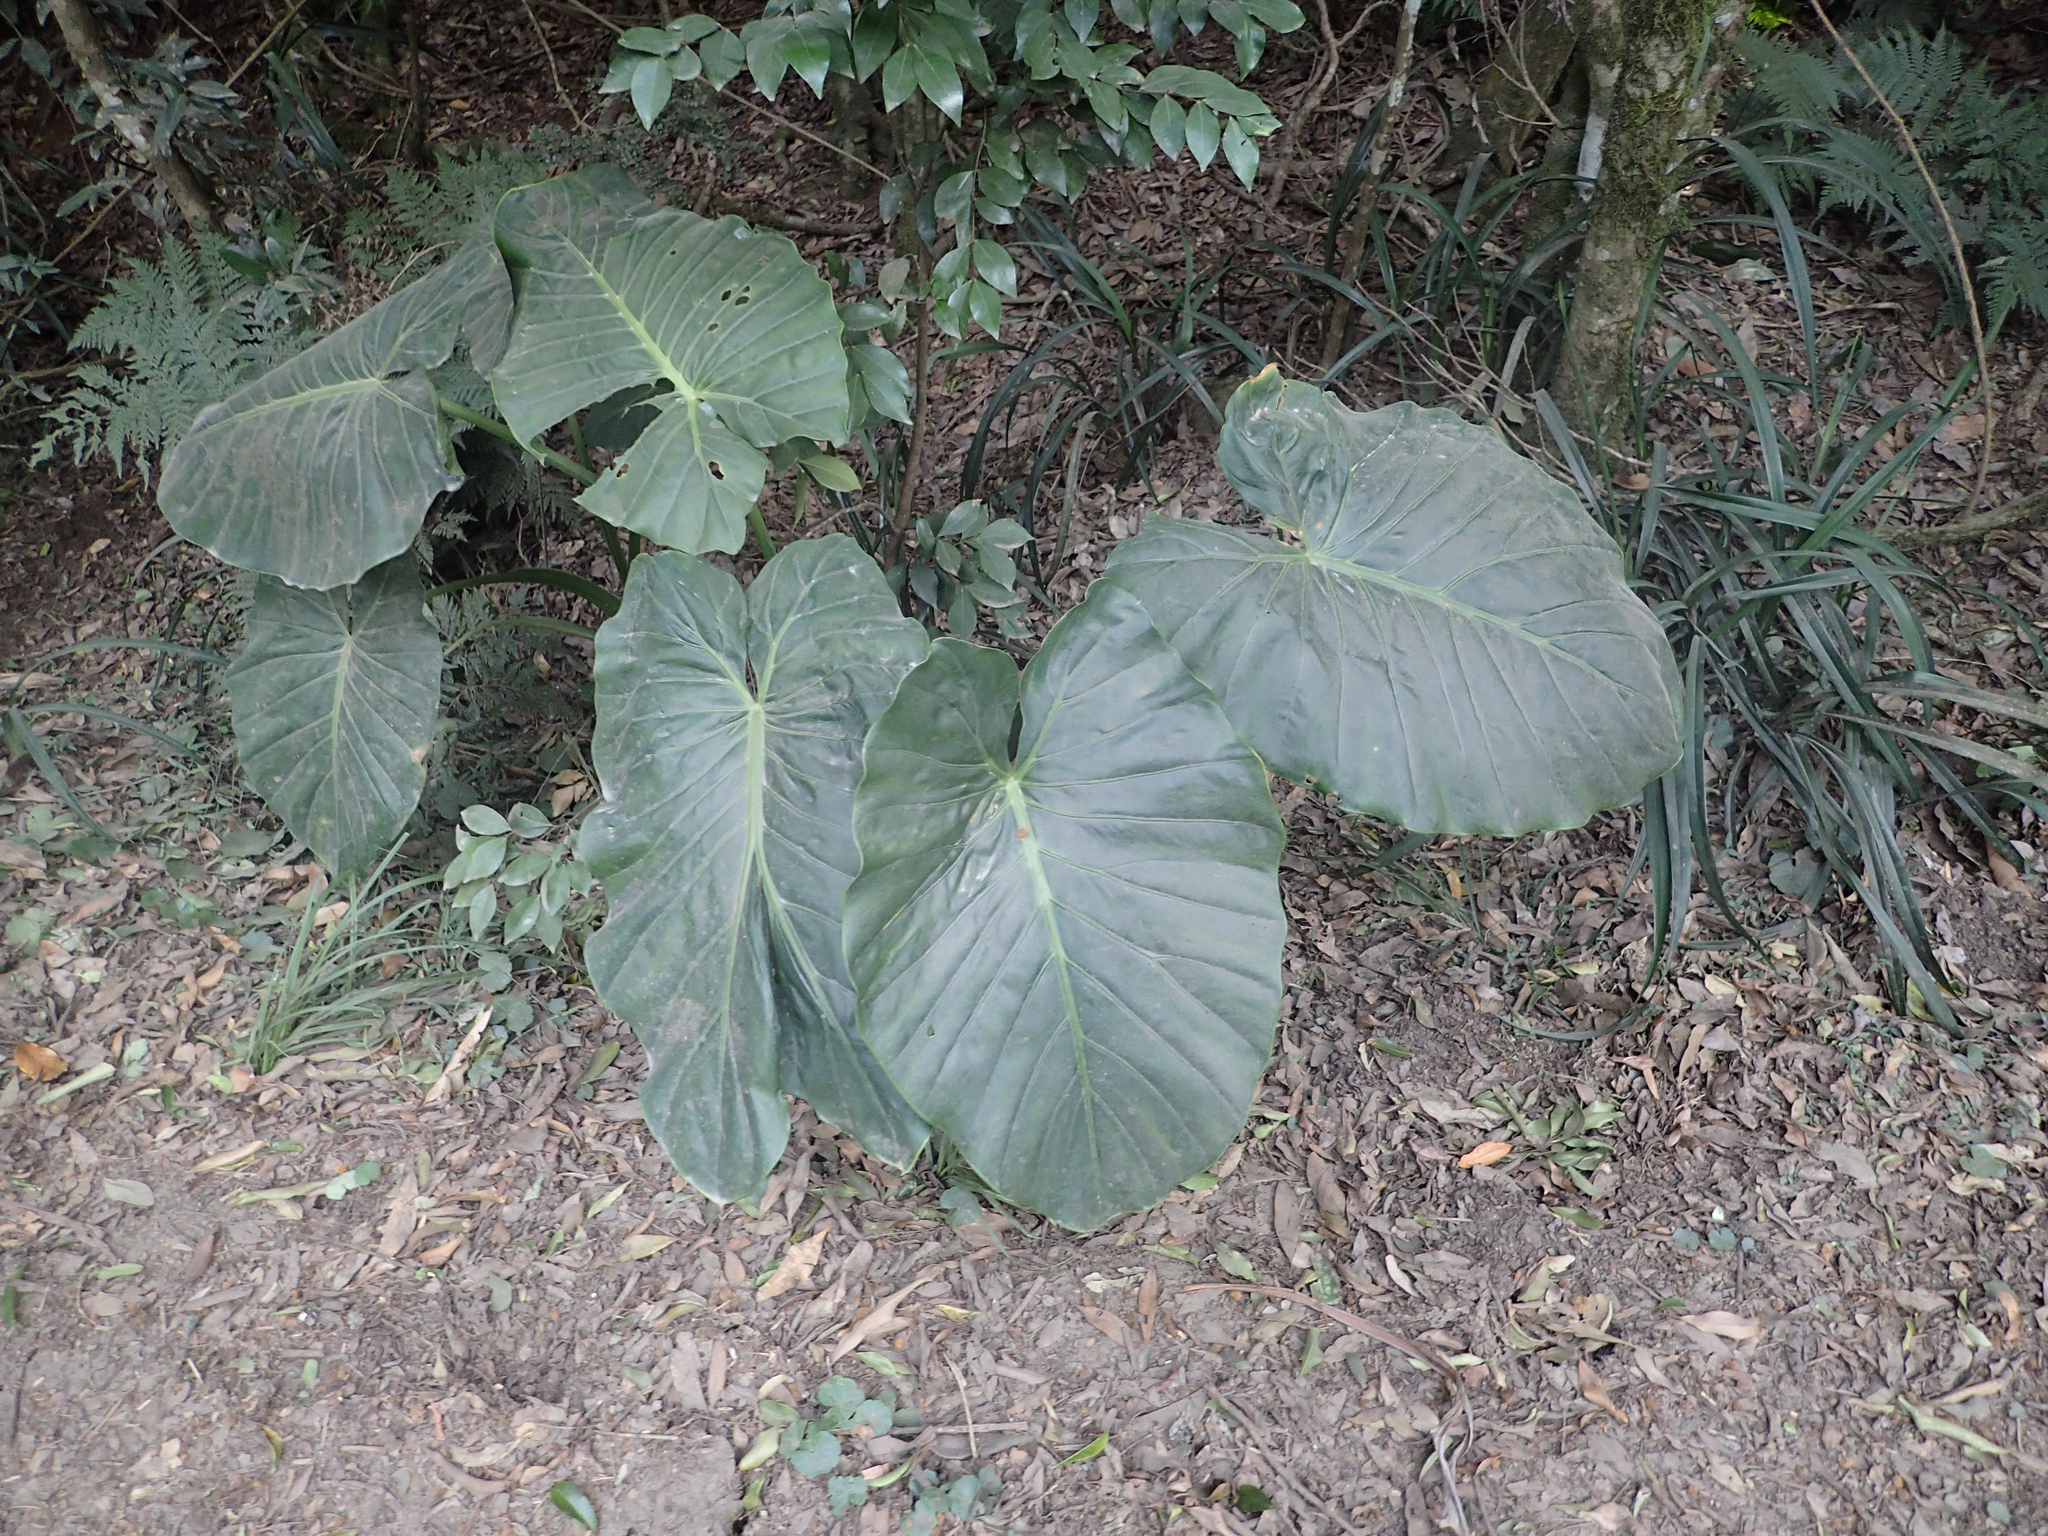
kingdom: Plantae
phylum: Tracheophyta
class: Liliopsida
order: Alismatales
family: Araceae
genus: Alocasia
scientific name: Alocasia brisbanensis
